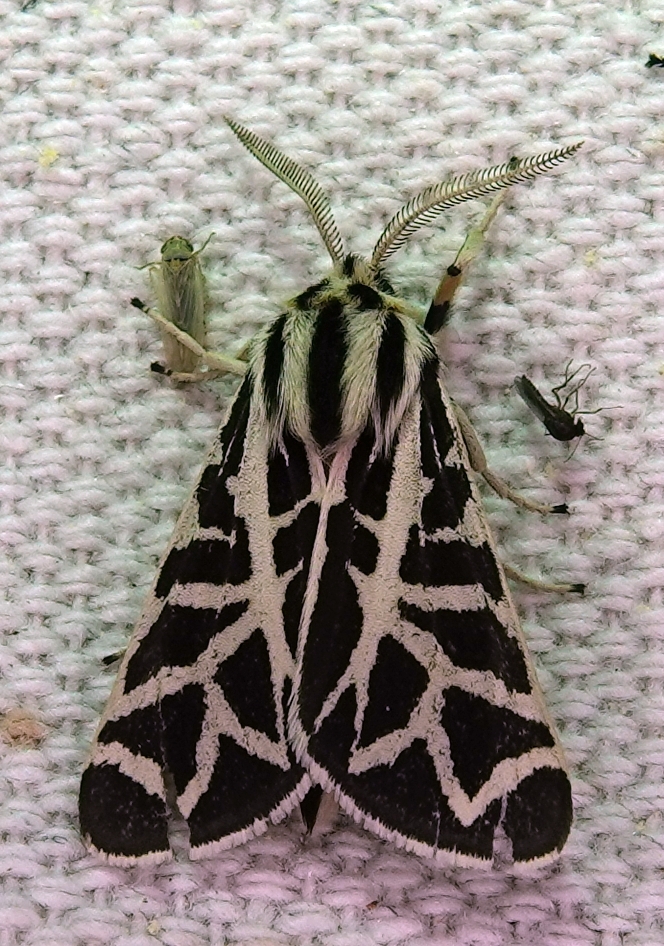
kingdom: Animalia
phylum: Arthropoda
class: Insecta
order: Lepidoptera
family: Erebidae
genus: Apantesis
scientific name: Apantesis
